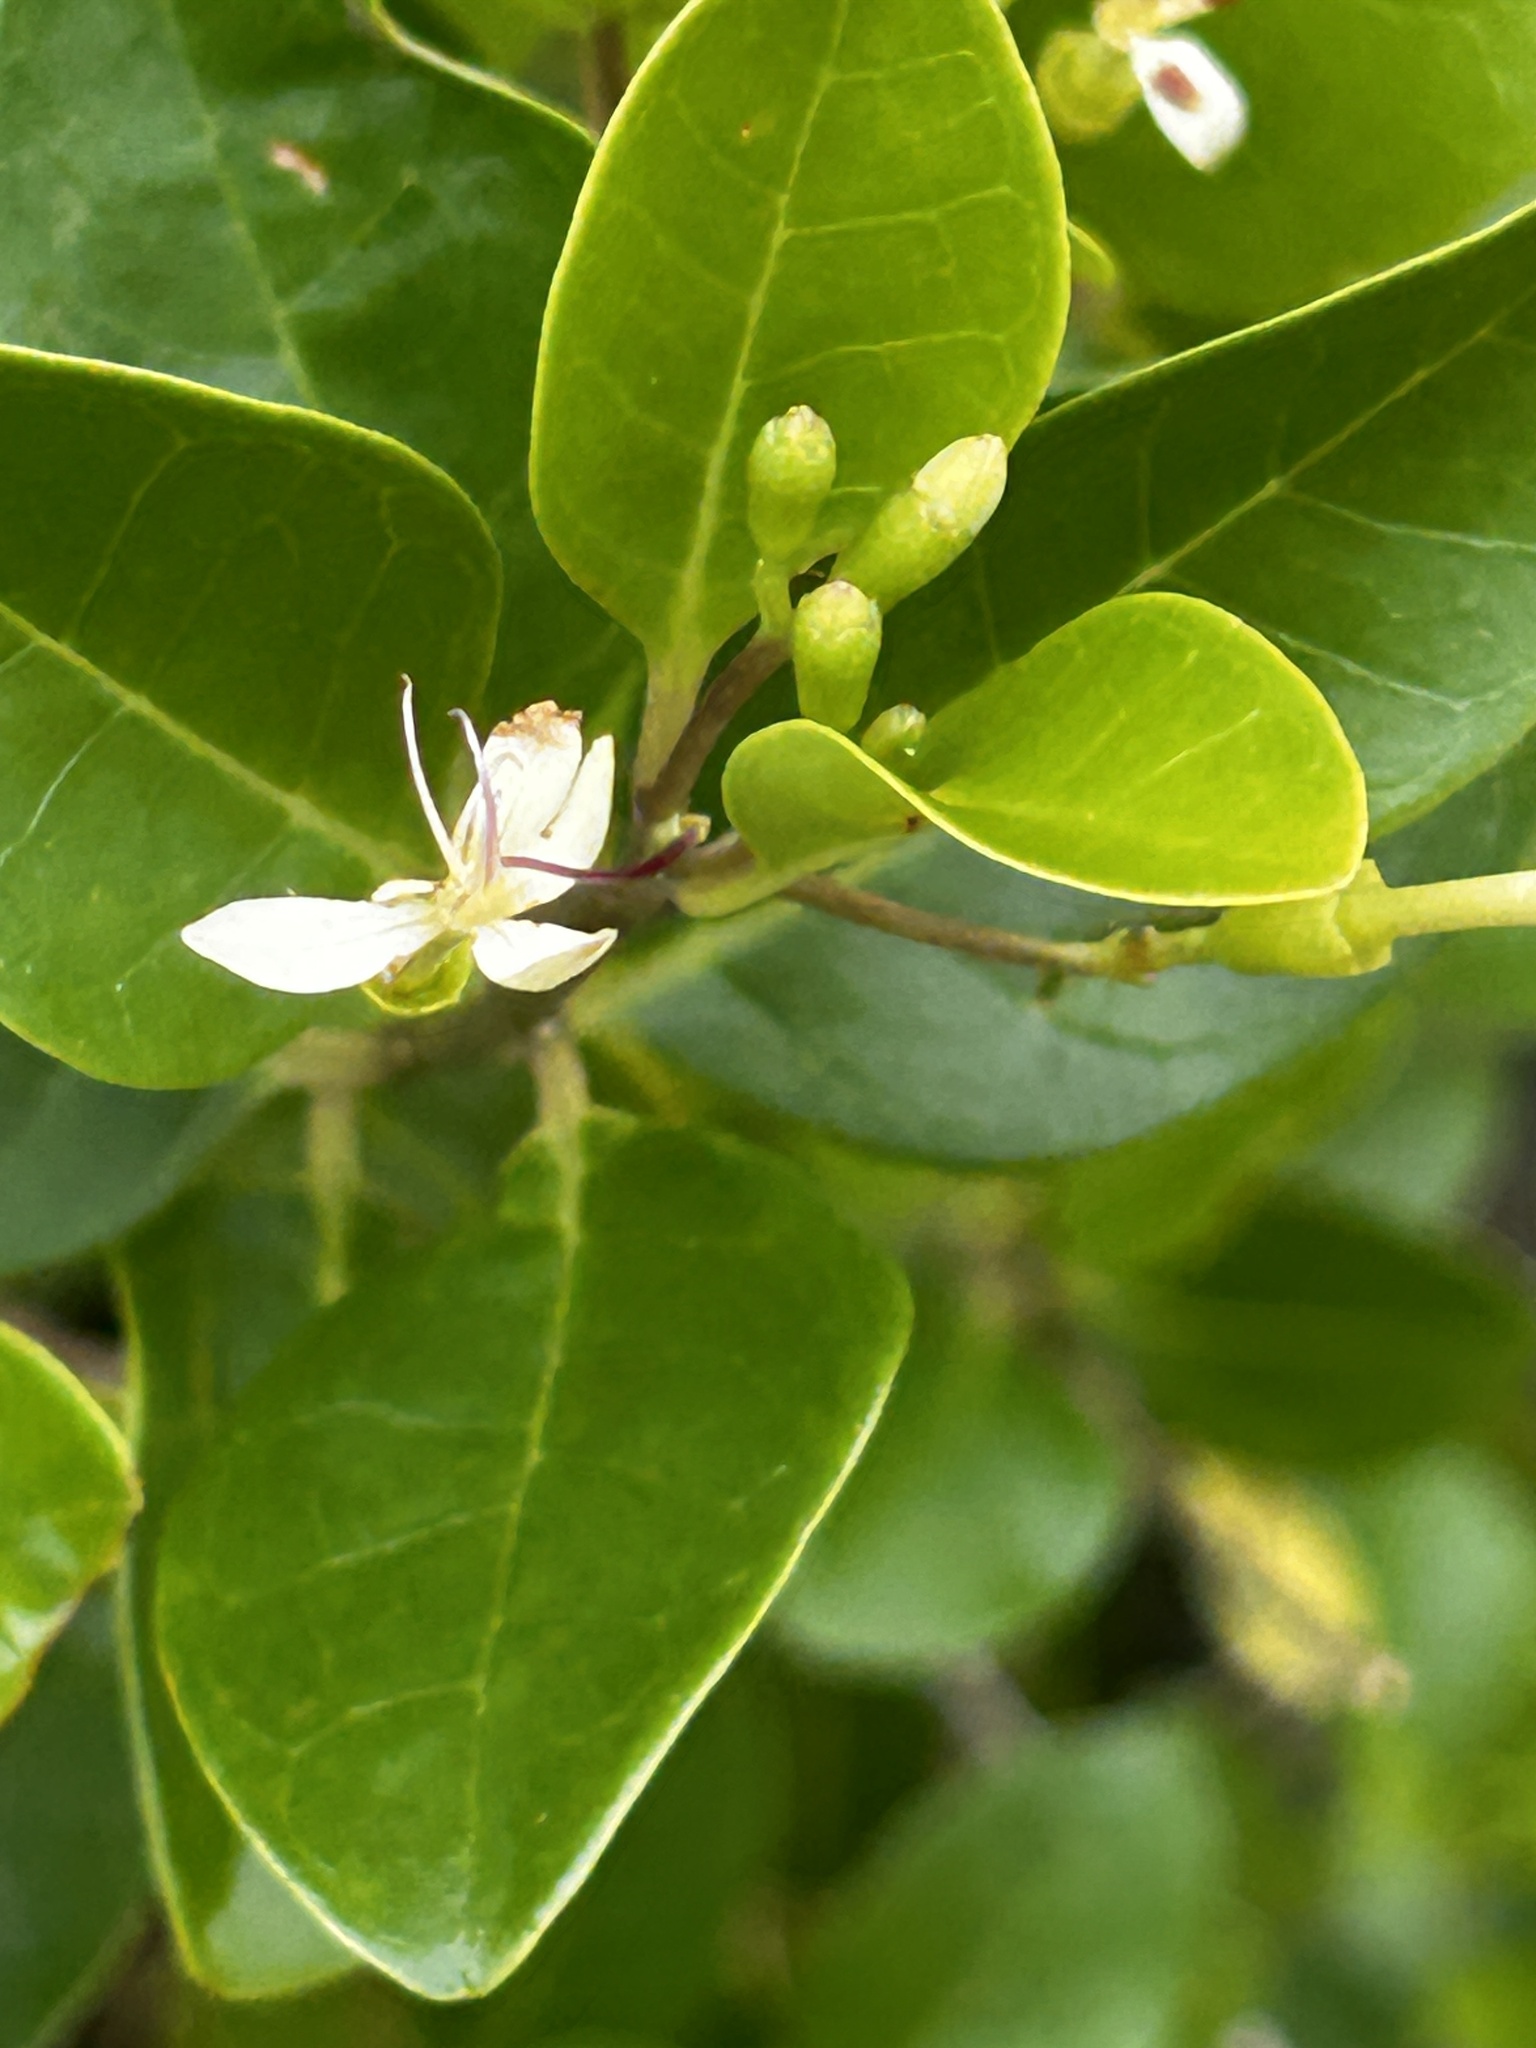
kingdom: Plantae
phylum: Tracheophyta
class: Magnoliopsida
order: Asterales
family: Goodeniaceae
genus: Scaevola
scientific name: Scaevola taccada
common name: Sea lettucetree
